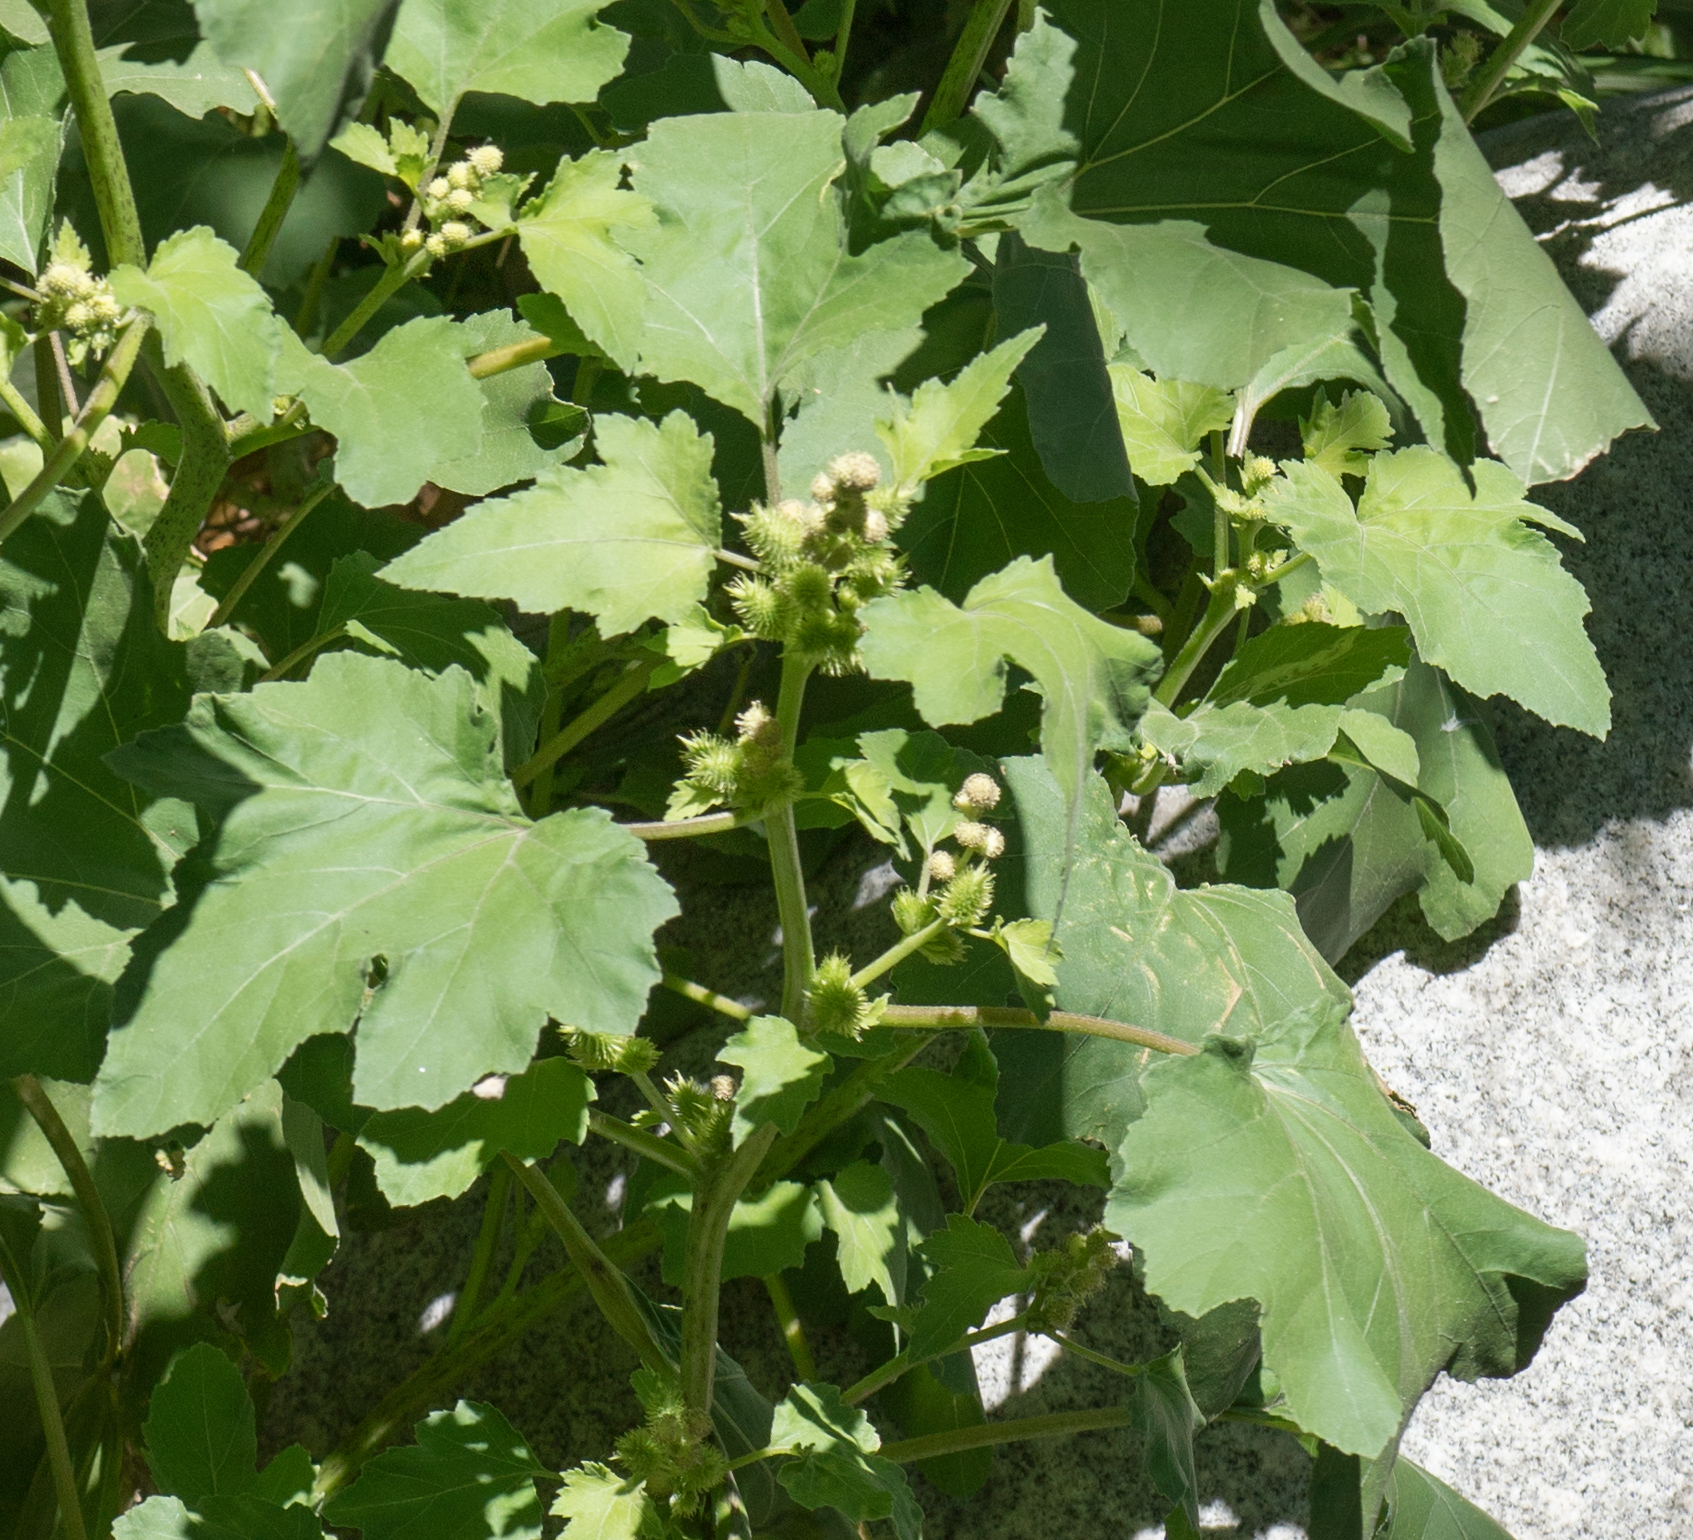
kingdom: Plantae
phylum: Tracheophyta
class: Magnoliopsida
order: Asterales
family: Asteraceae
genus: Xanthium
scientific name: Xanthium strumarium
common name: Rough cocklebur
